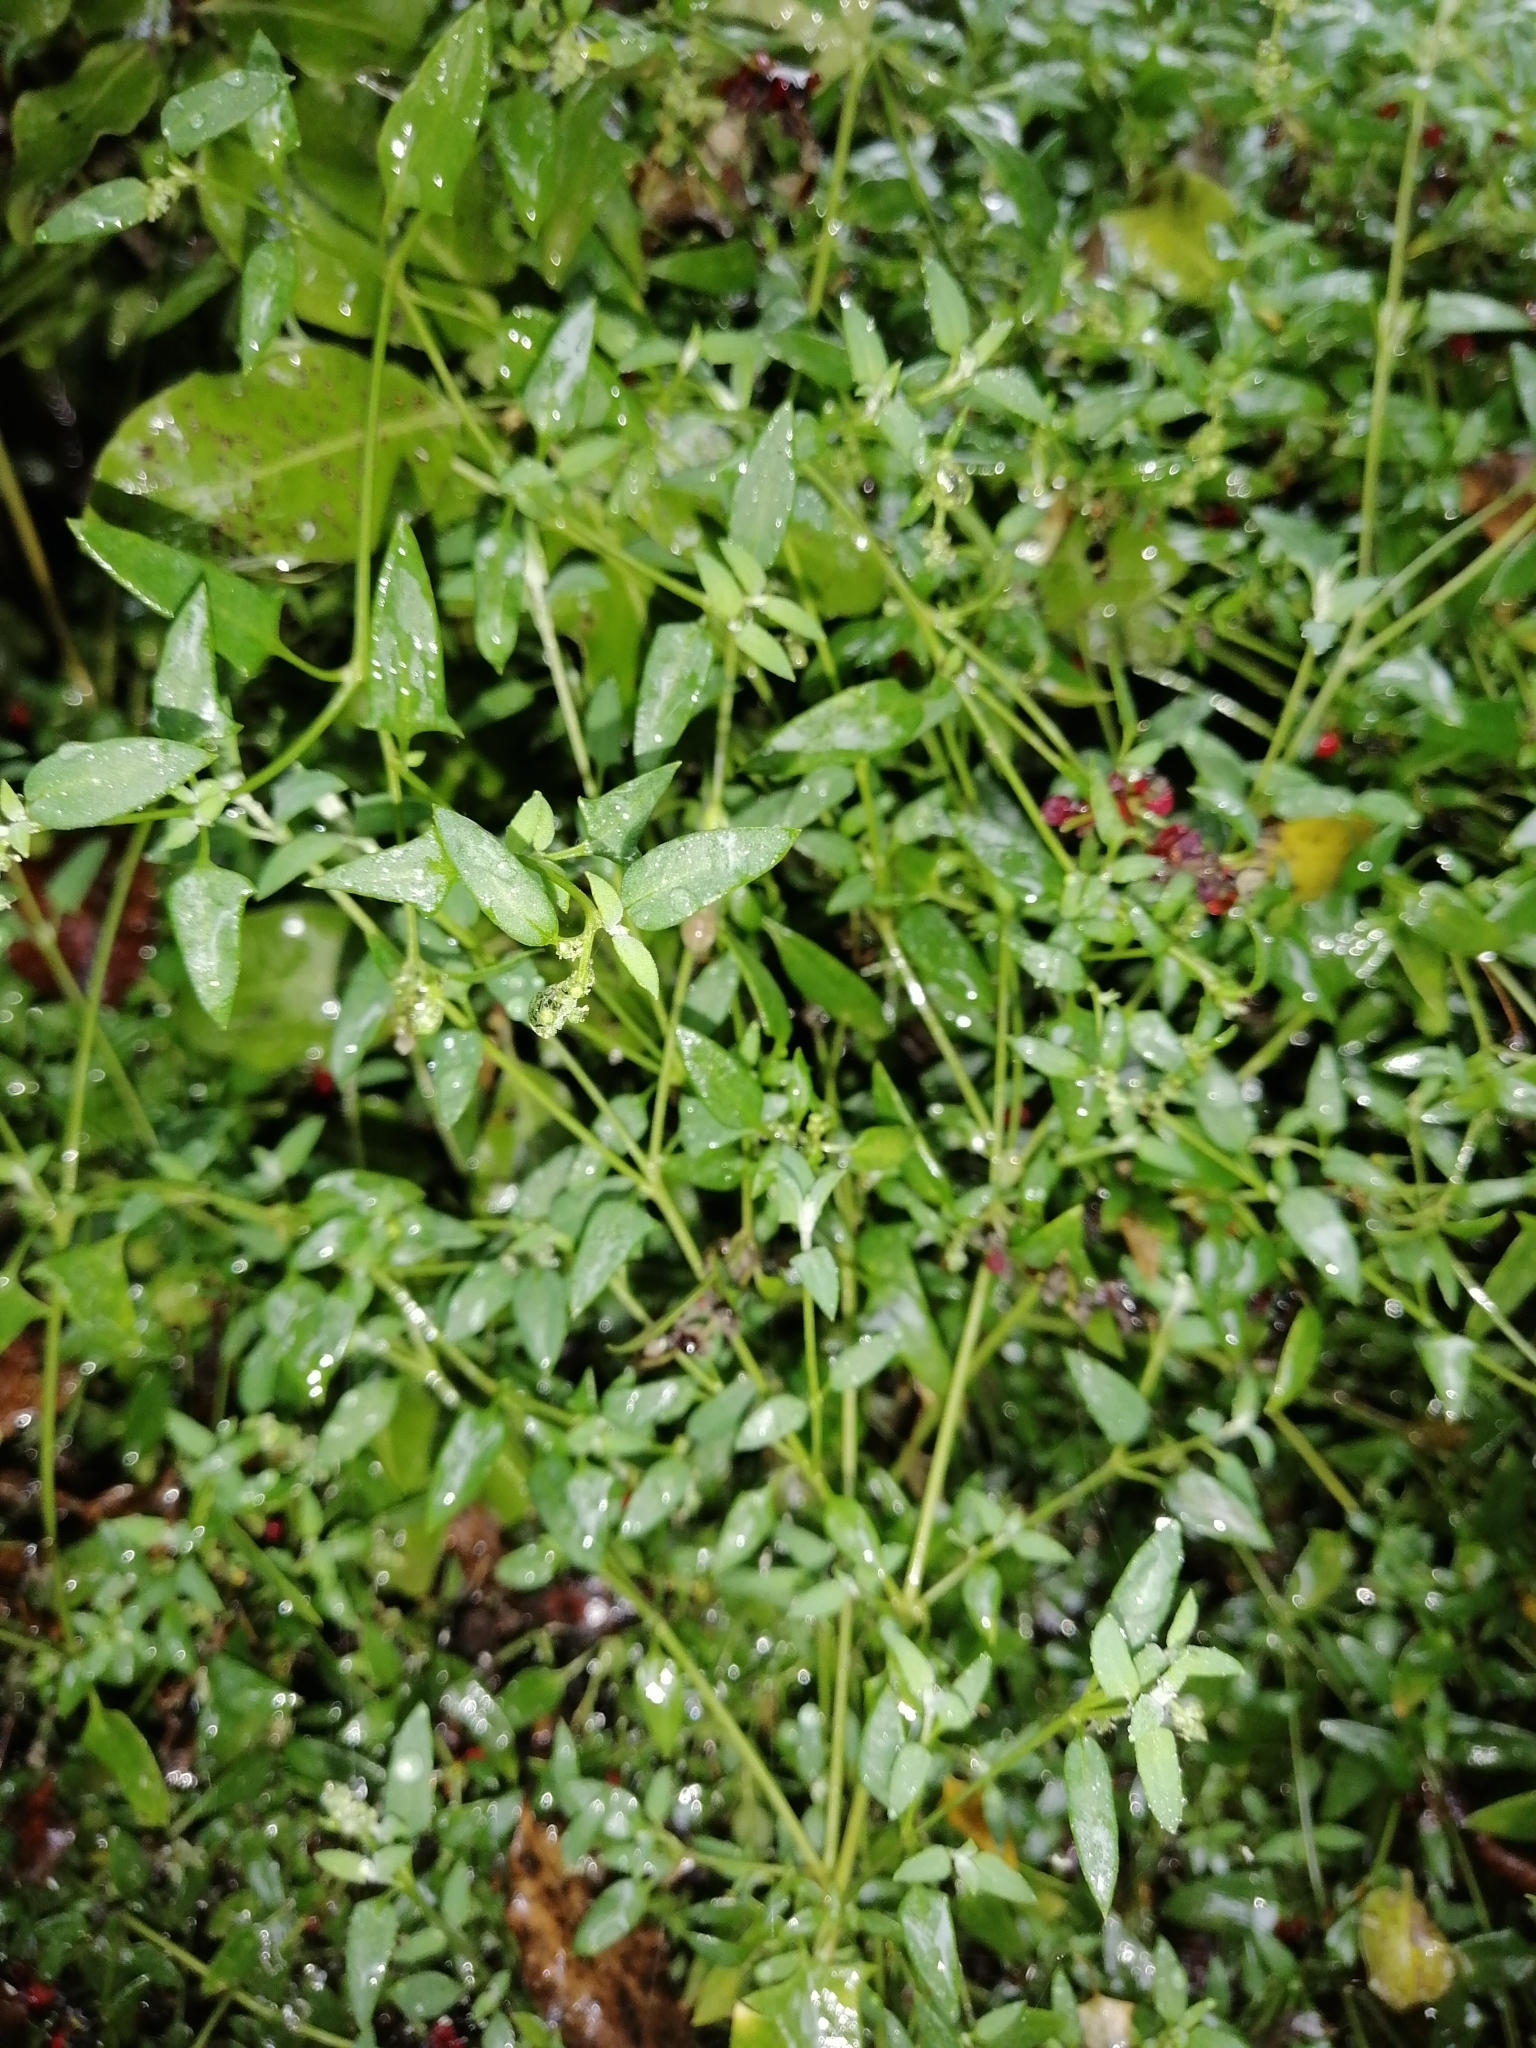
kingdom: Plantae
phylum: Tracheophyta
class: Magnoliopsida
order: Caryophyllales
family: Amaranthaceae
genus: Chenopodium
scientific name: Chenopodium nutans
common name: Climbing-saltbush
